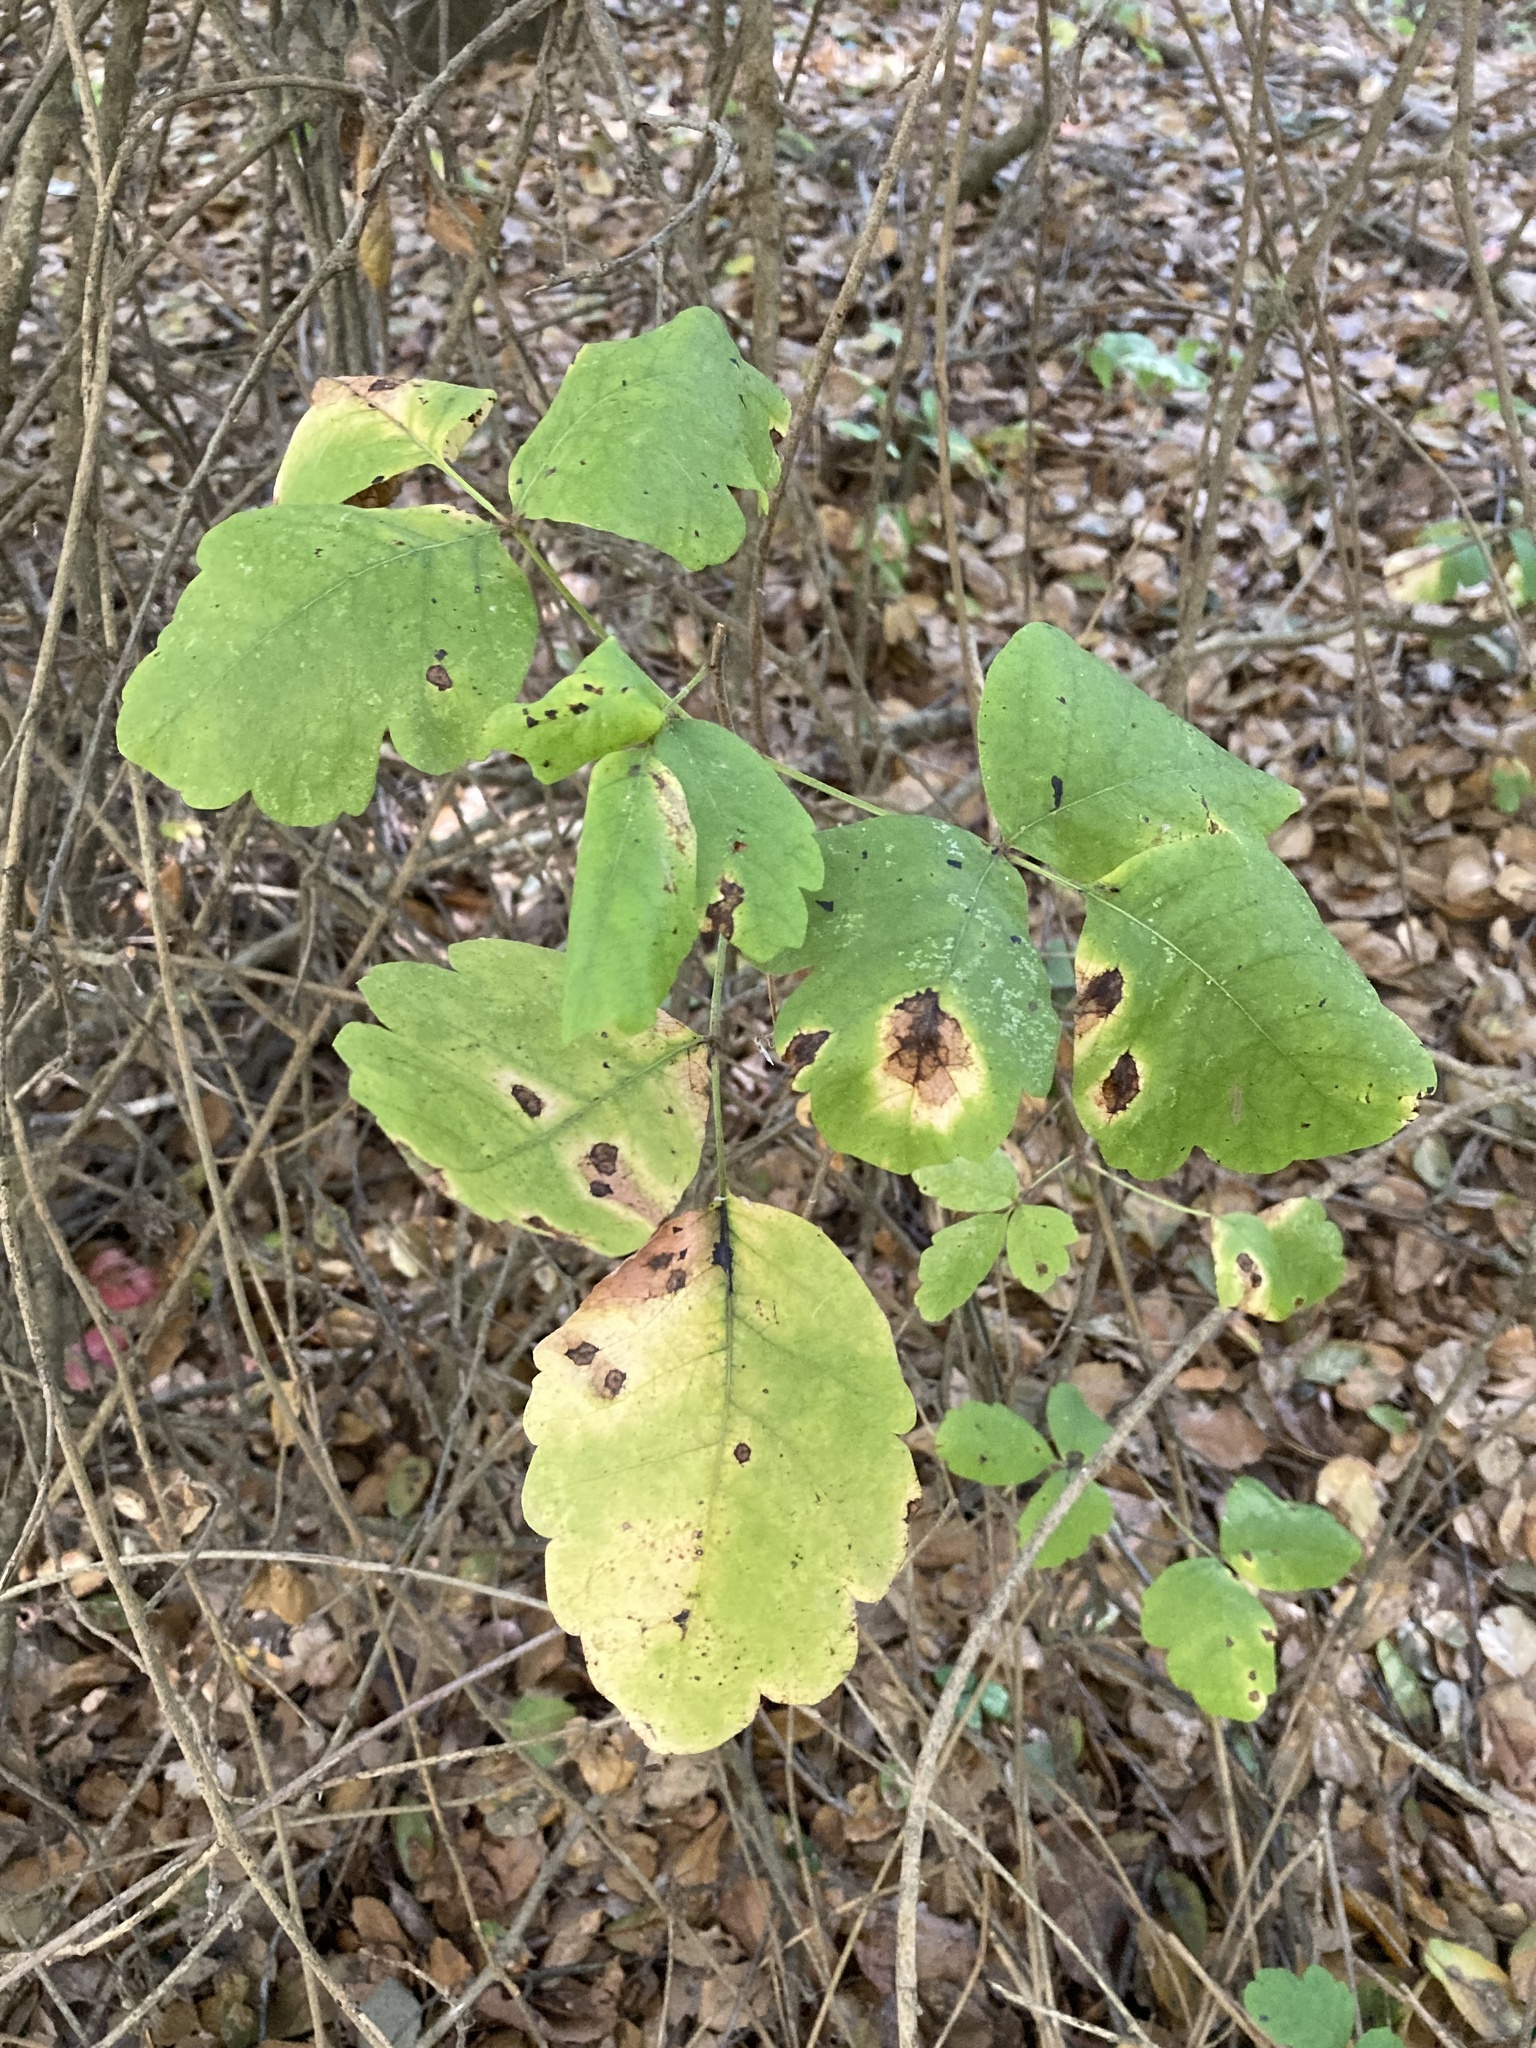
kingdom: Plantae
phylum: Tracheophyta
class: Magnoliopsida
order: Sapindales
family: Anacardiaceae
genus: Toxicodendron
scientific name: Toxicodendron diversilobum
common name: Pacific poison-oak
